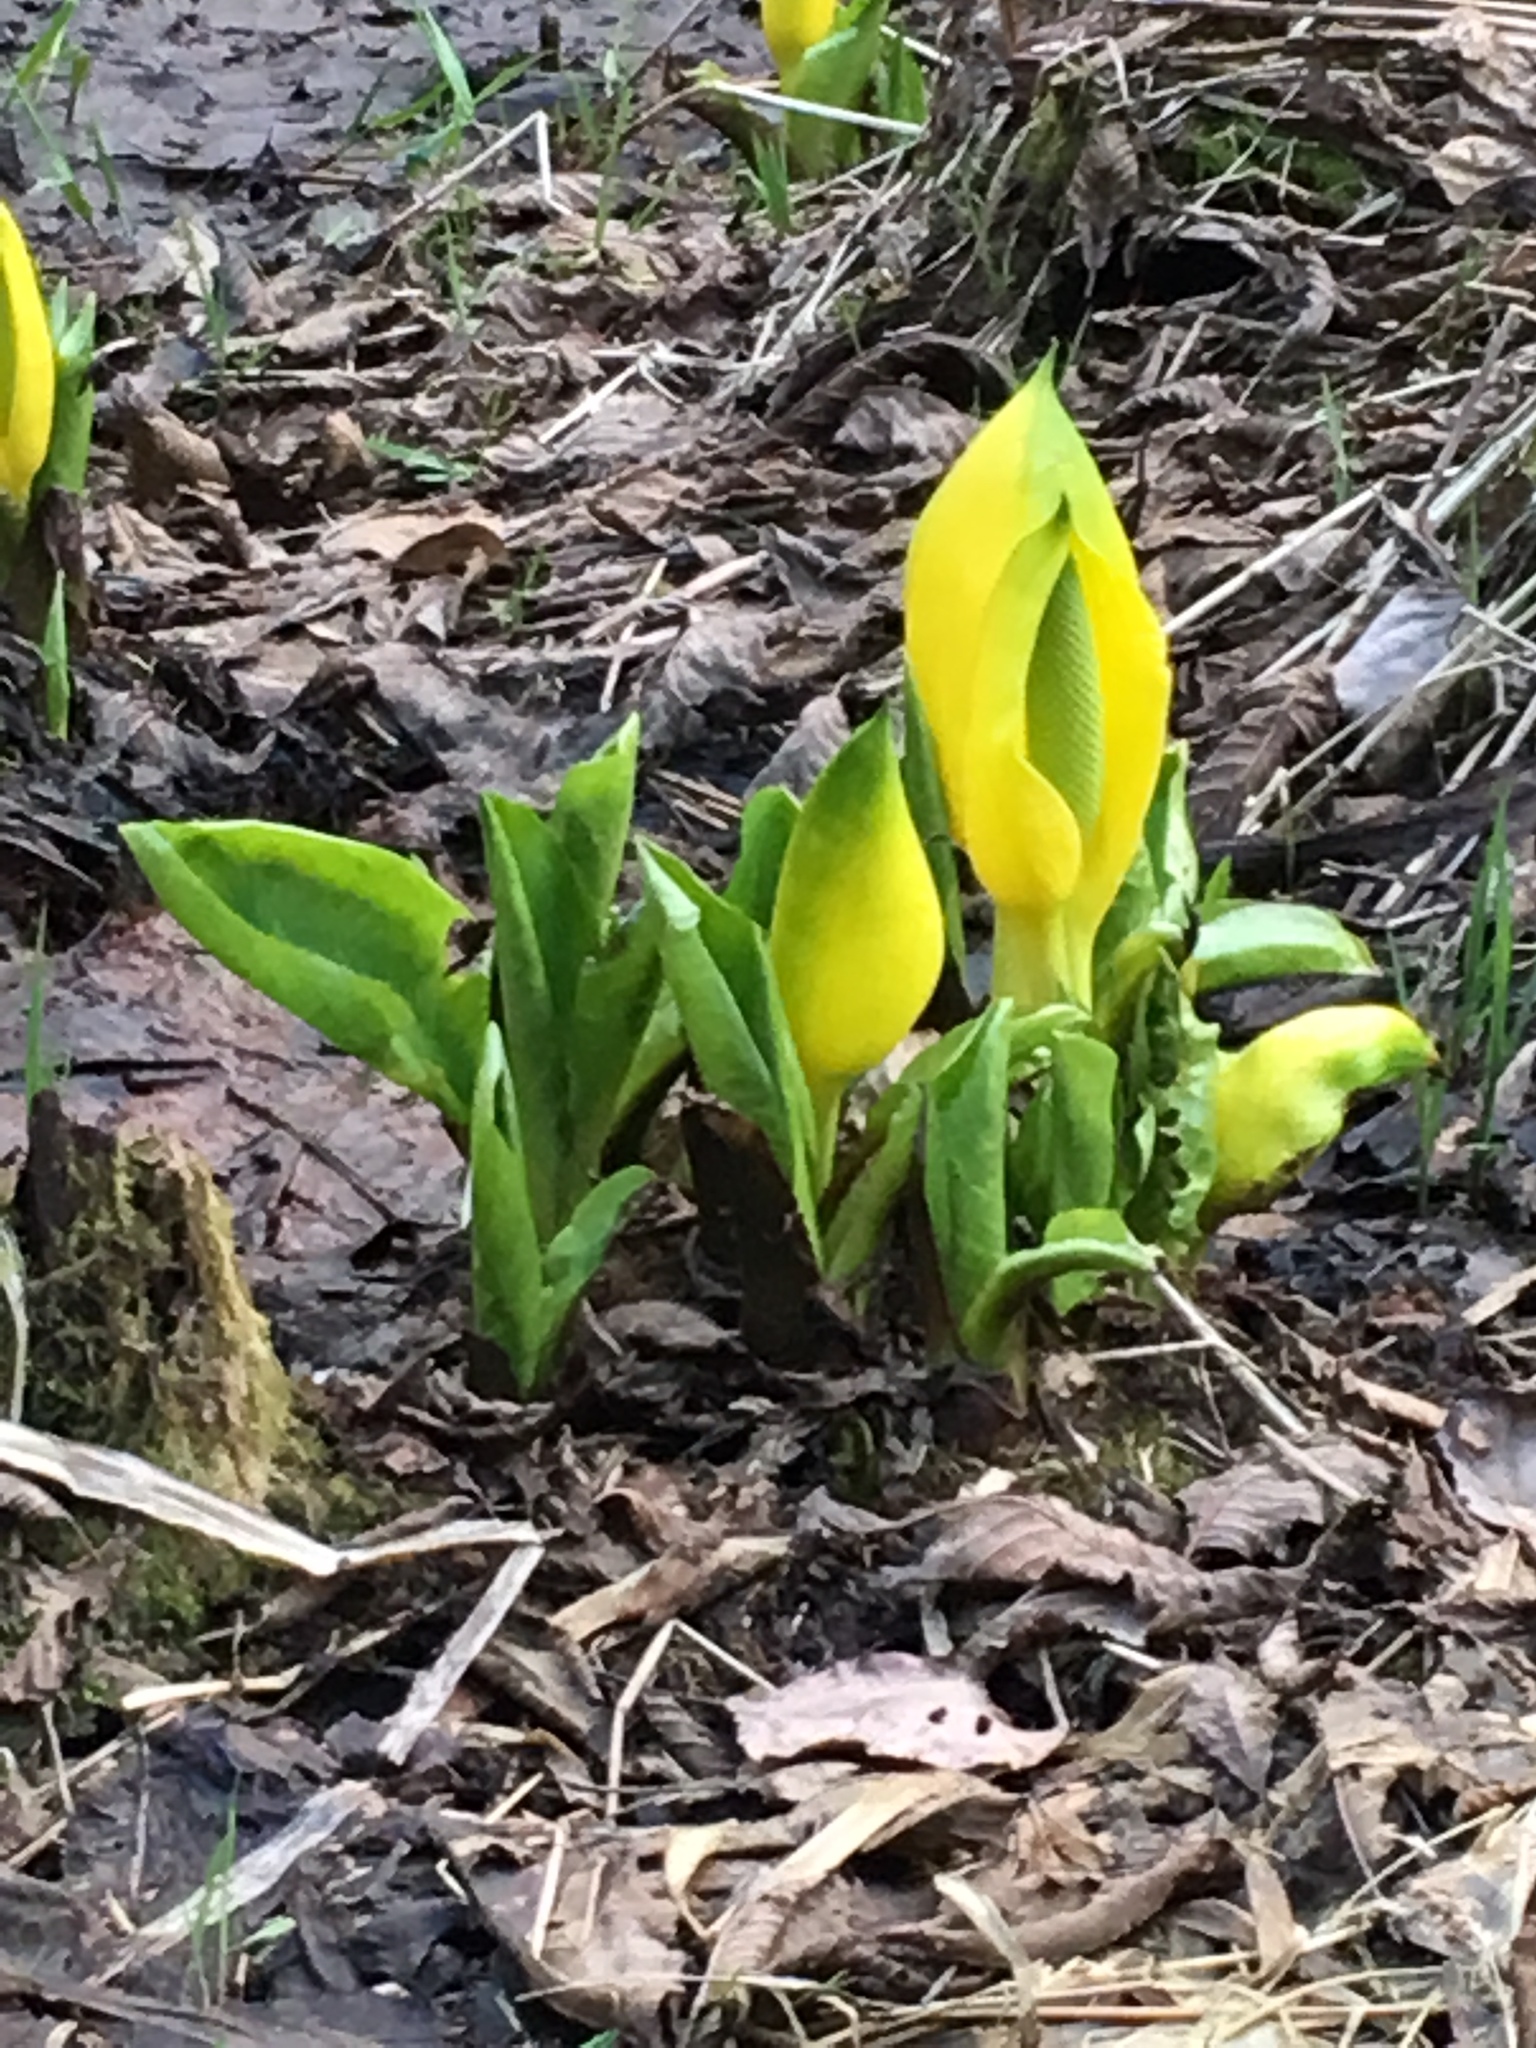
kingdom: Plantae
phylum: Tracheophyta
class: Liliopsida
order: Alismatales
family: Araceae
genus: Lysichiton
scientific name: Lysichiton americanus
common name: American skunk cabbage
